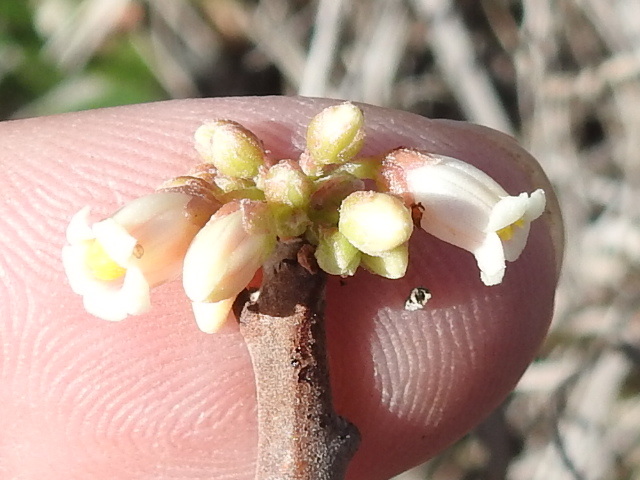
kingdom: Plantae
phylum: Tracheophyta
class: Magnoliopsida
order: Malpighiales
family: Euphorbiaceae
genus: Jatropha
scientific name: Jatropha dioica
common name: Leatherstem
